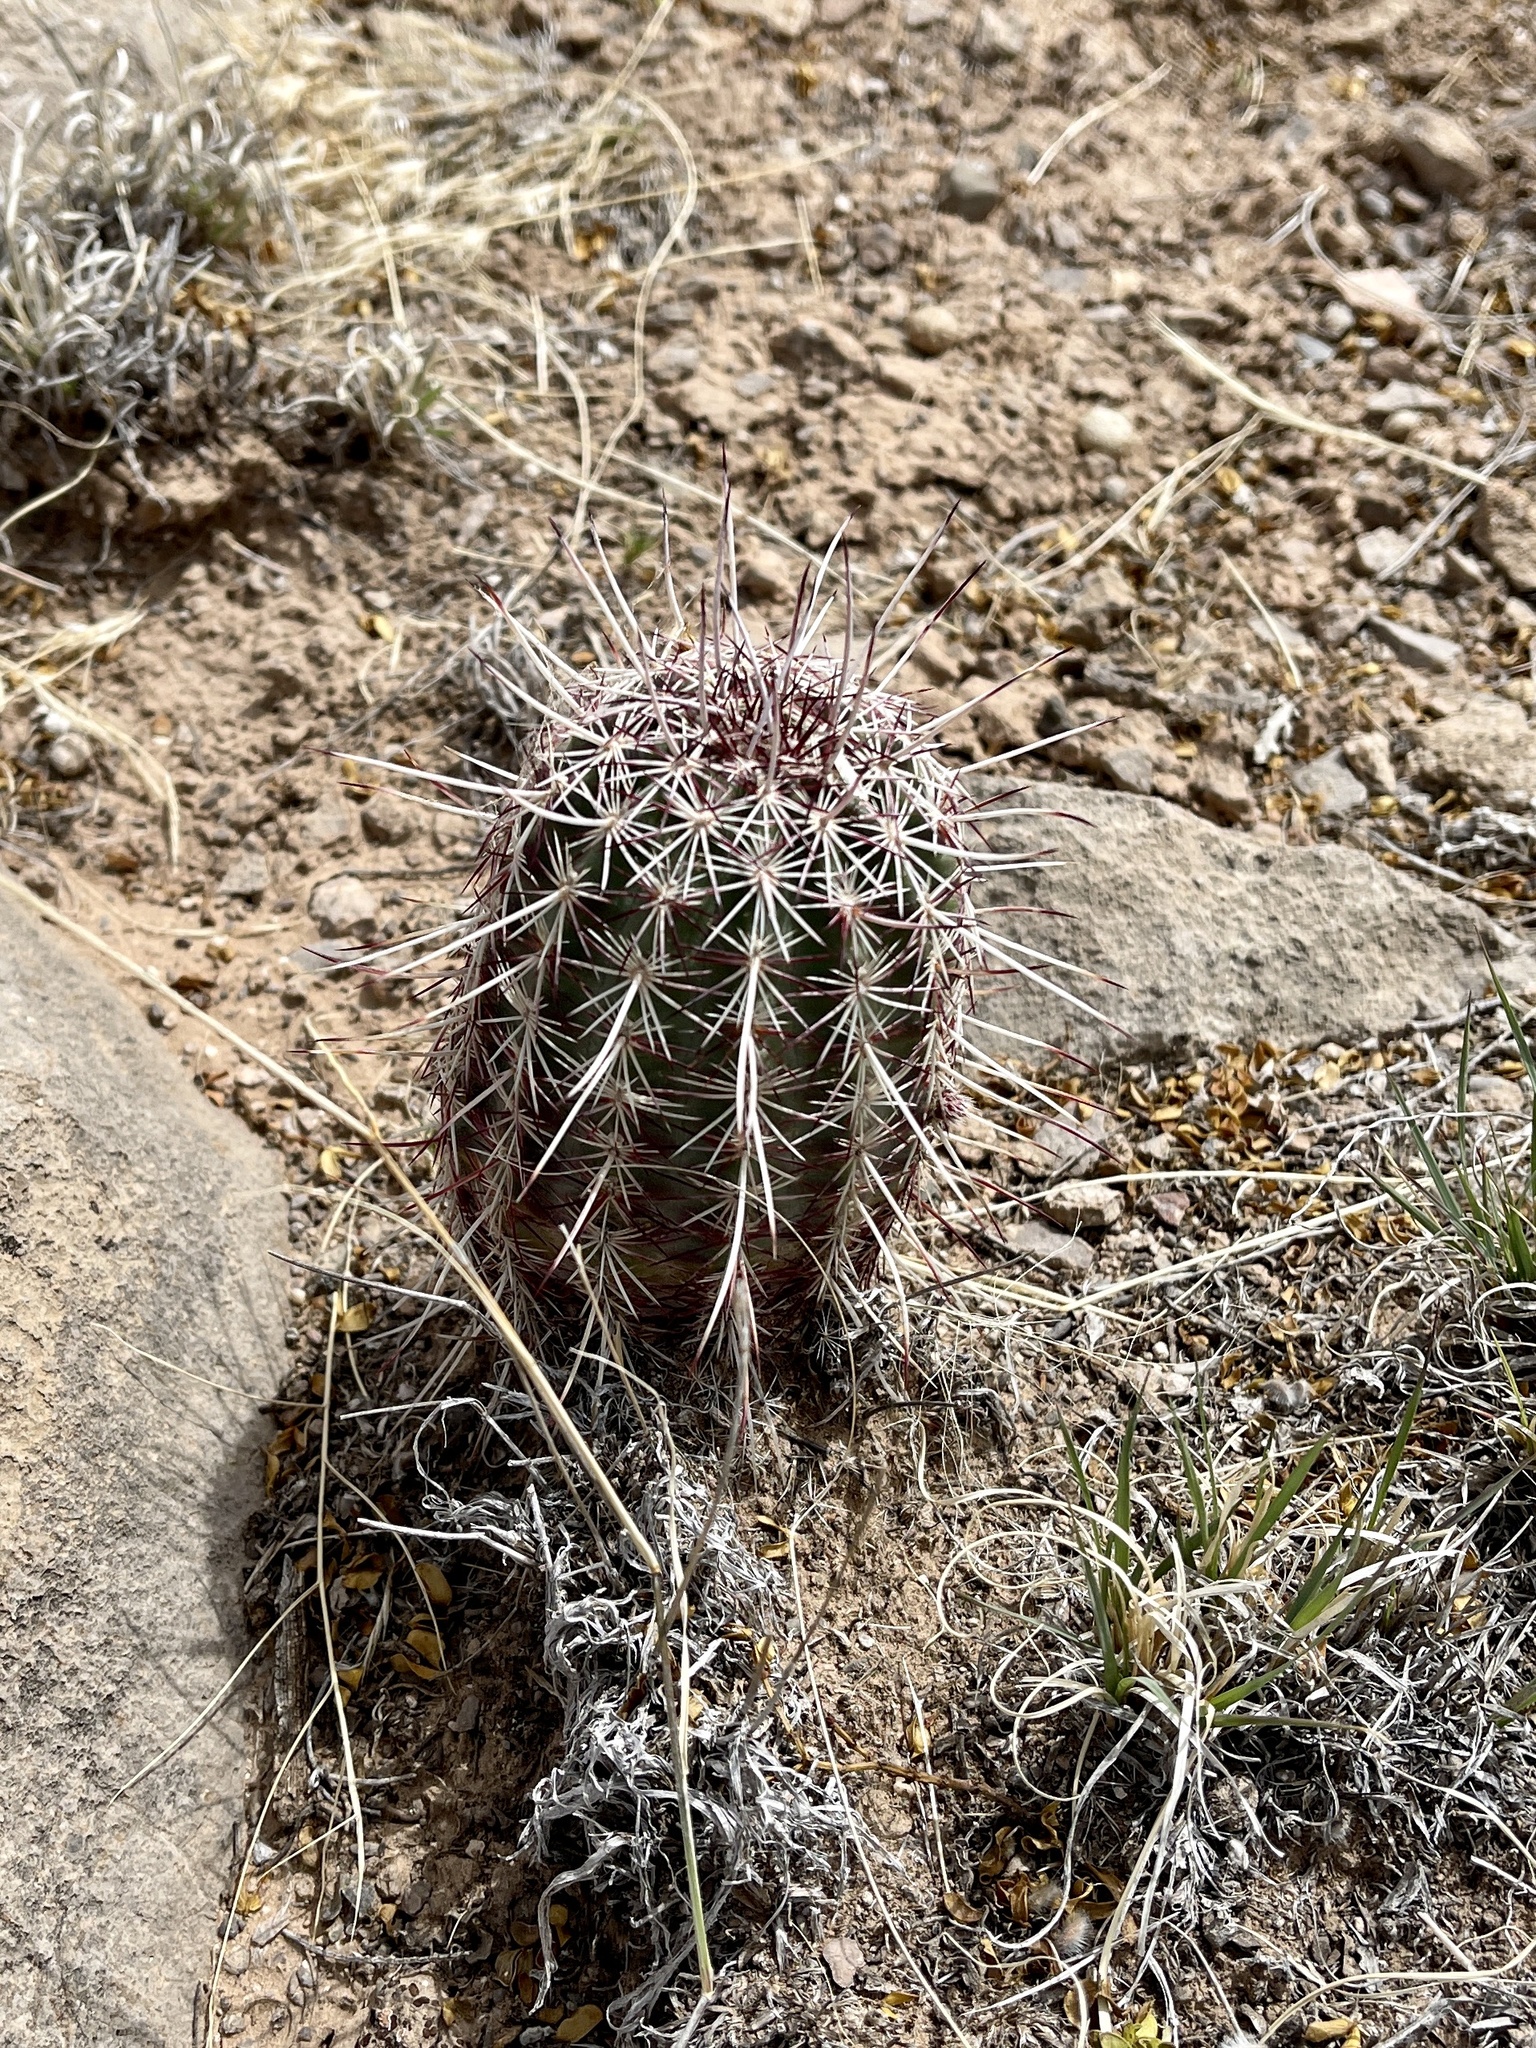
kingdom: Plantae
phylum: Tracheophyta
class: Magnoliopsida
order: Caryophyllales
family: Cactaceae
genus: Echinocereus
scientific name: Echinocereus viridiflorus
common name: Nylon hedgehog cactus
